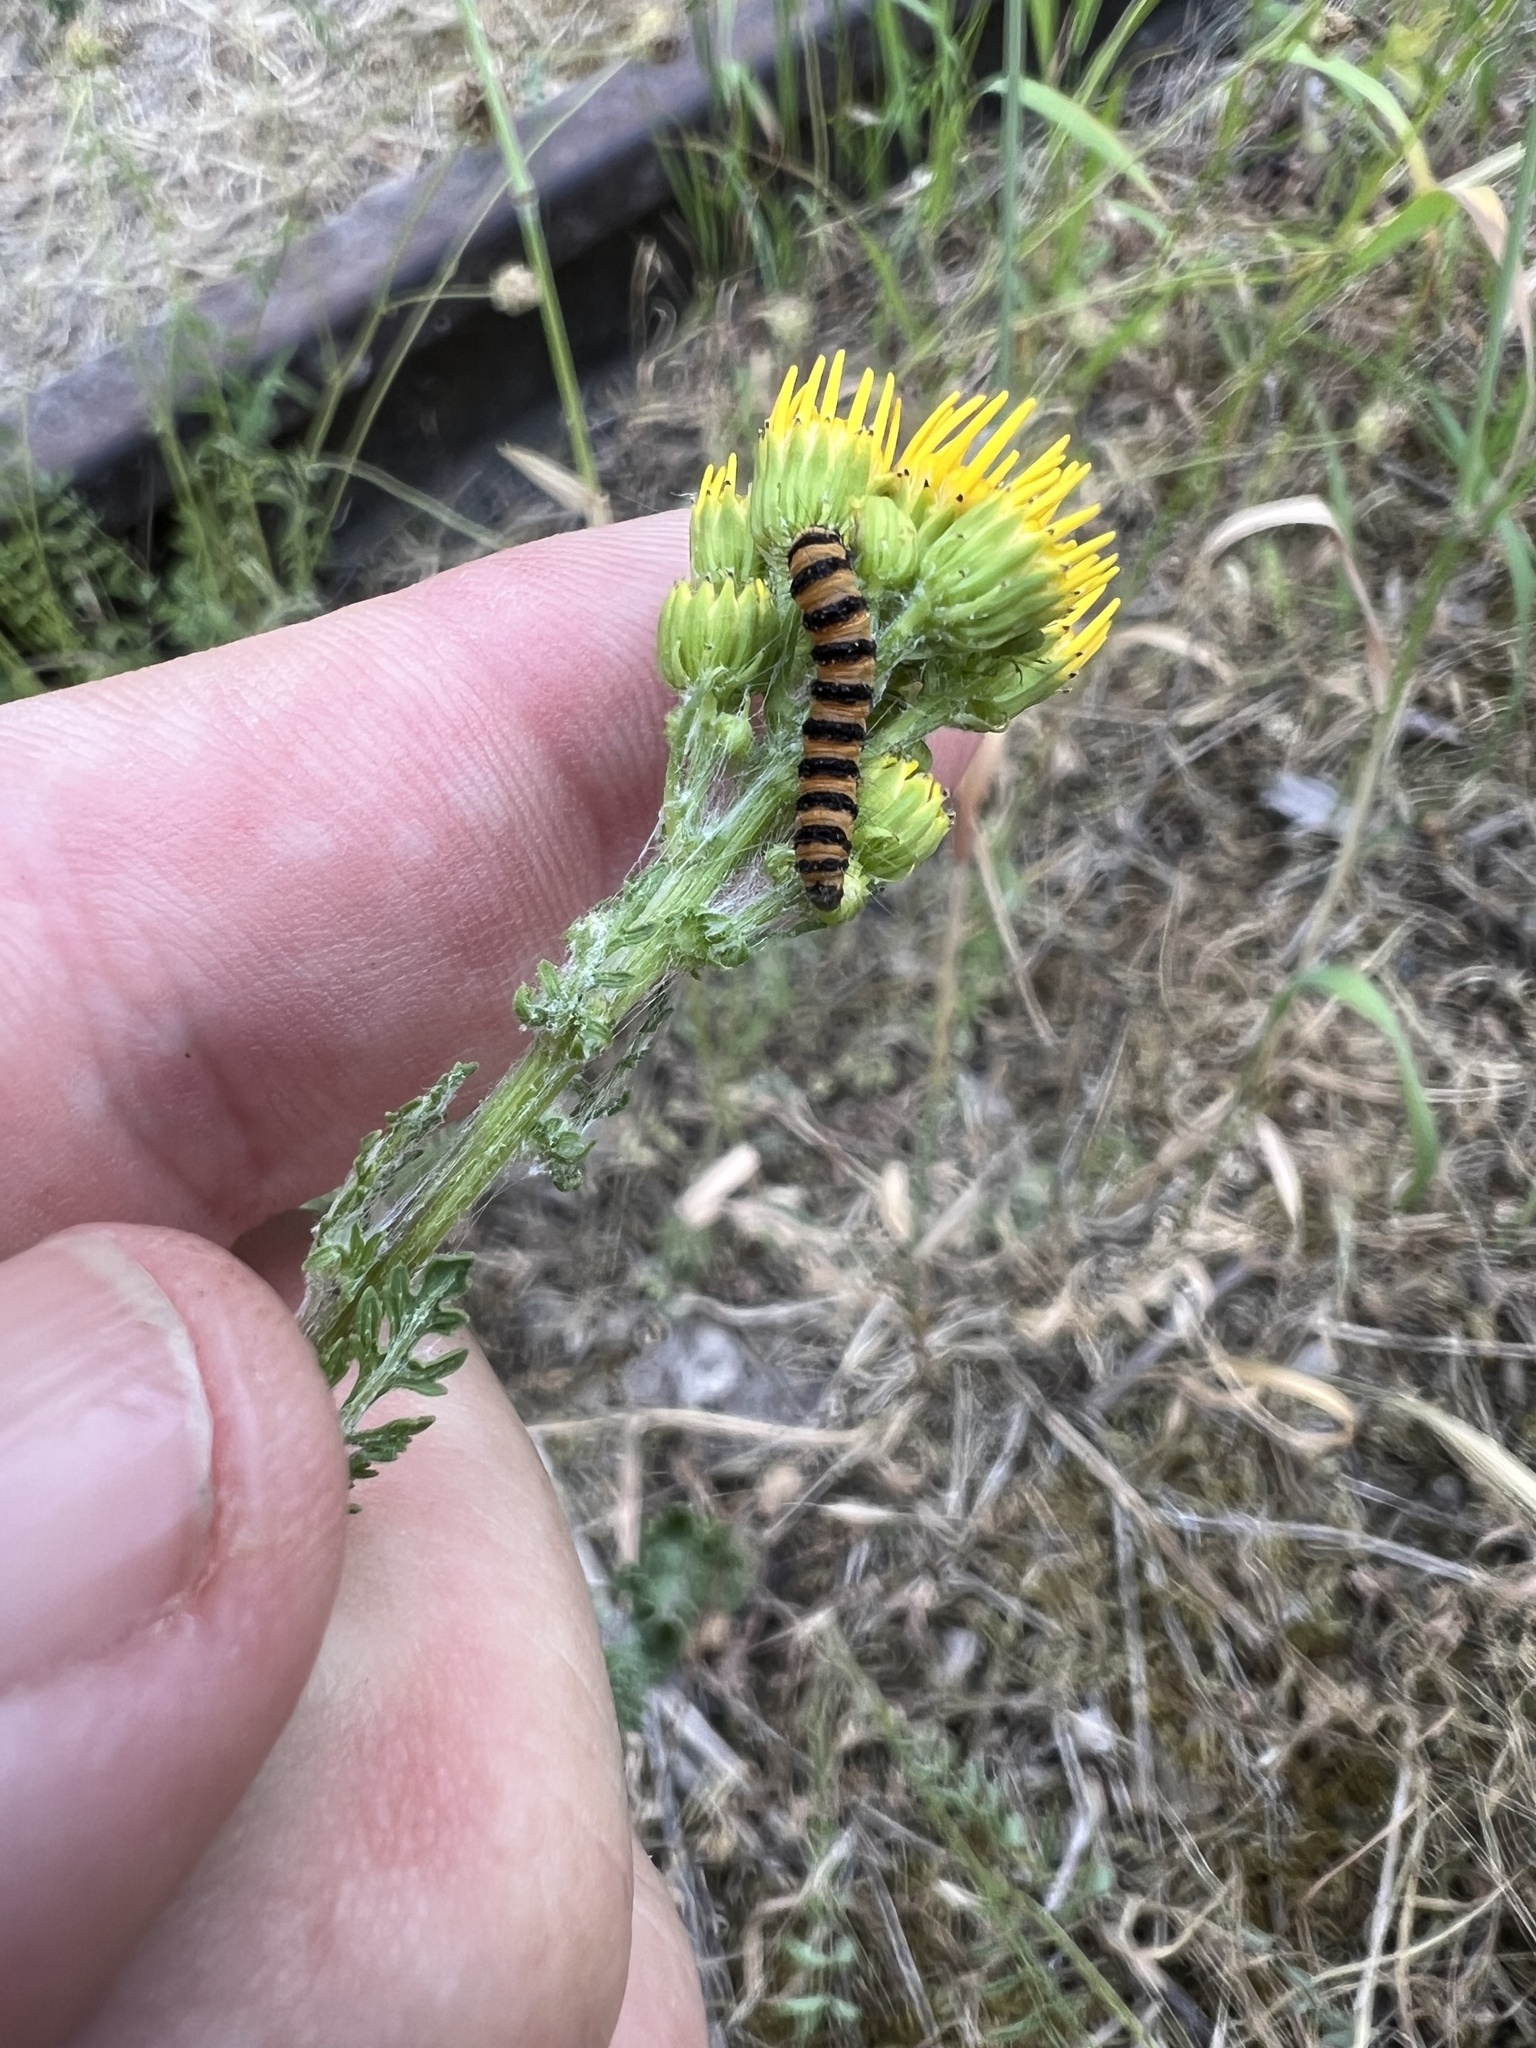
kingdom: Animalia
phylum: Arthropoda
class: Insecta
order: Lepidoptera
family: Erebidae
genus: Tyria
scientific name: Tyria jacobaeae
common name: Cinnabar
